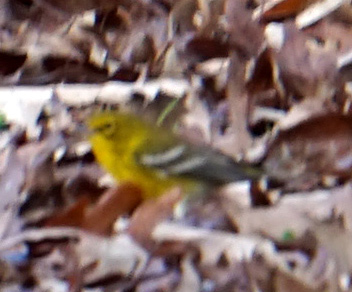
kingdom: Animalia
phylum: Chordata
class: Aves
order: Passeriformes
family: Parulidae
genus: Setophaga
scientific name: Setophaga pinus
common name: Pine warbler
